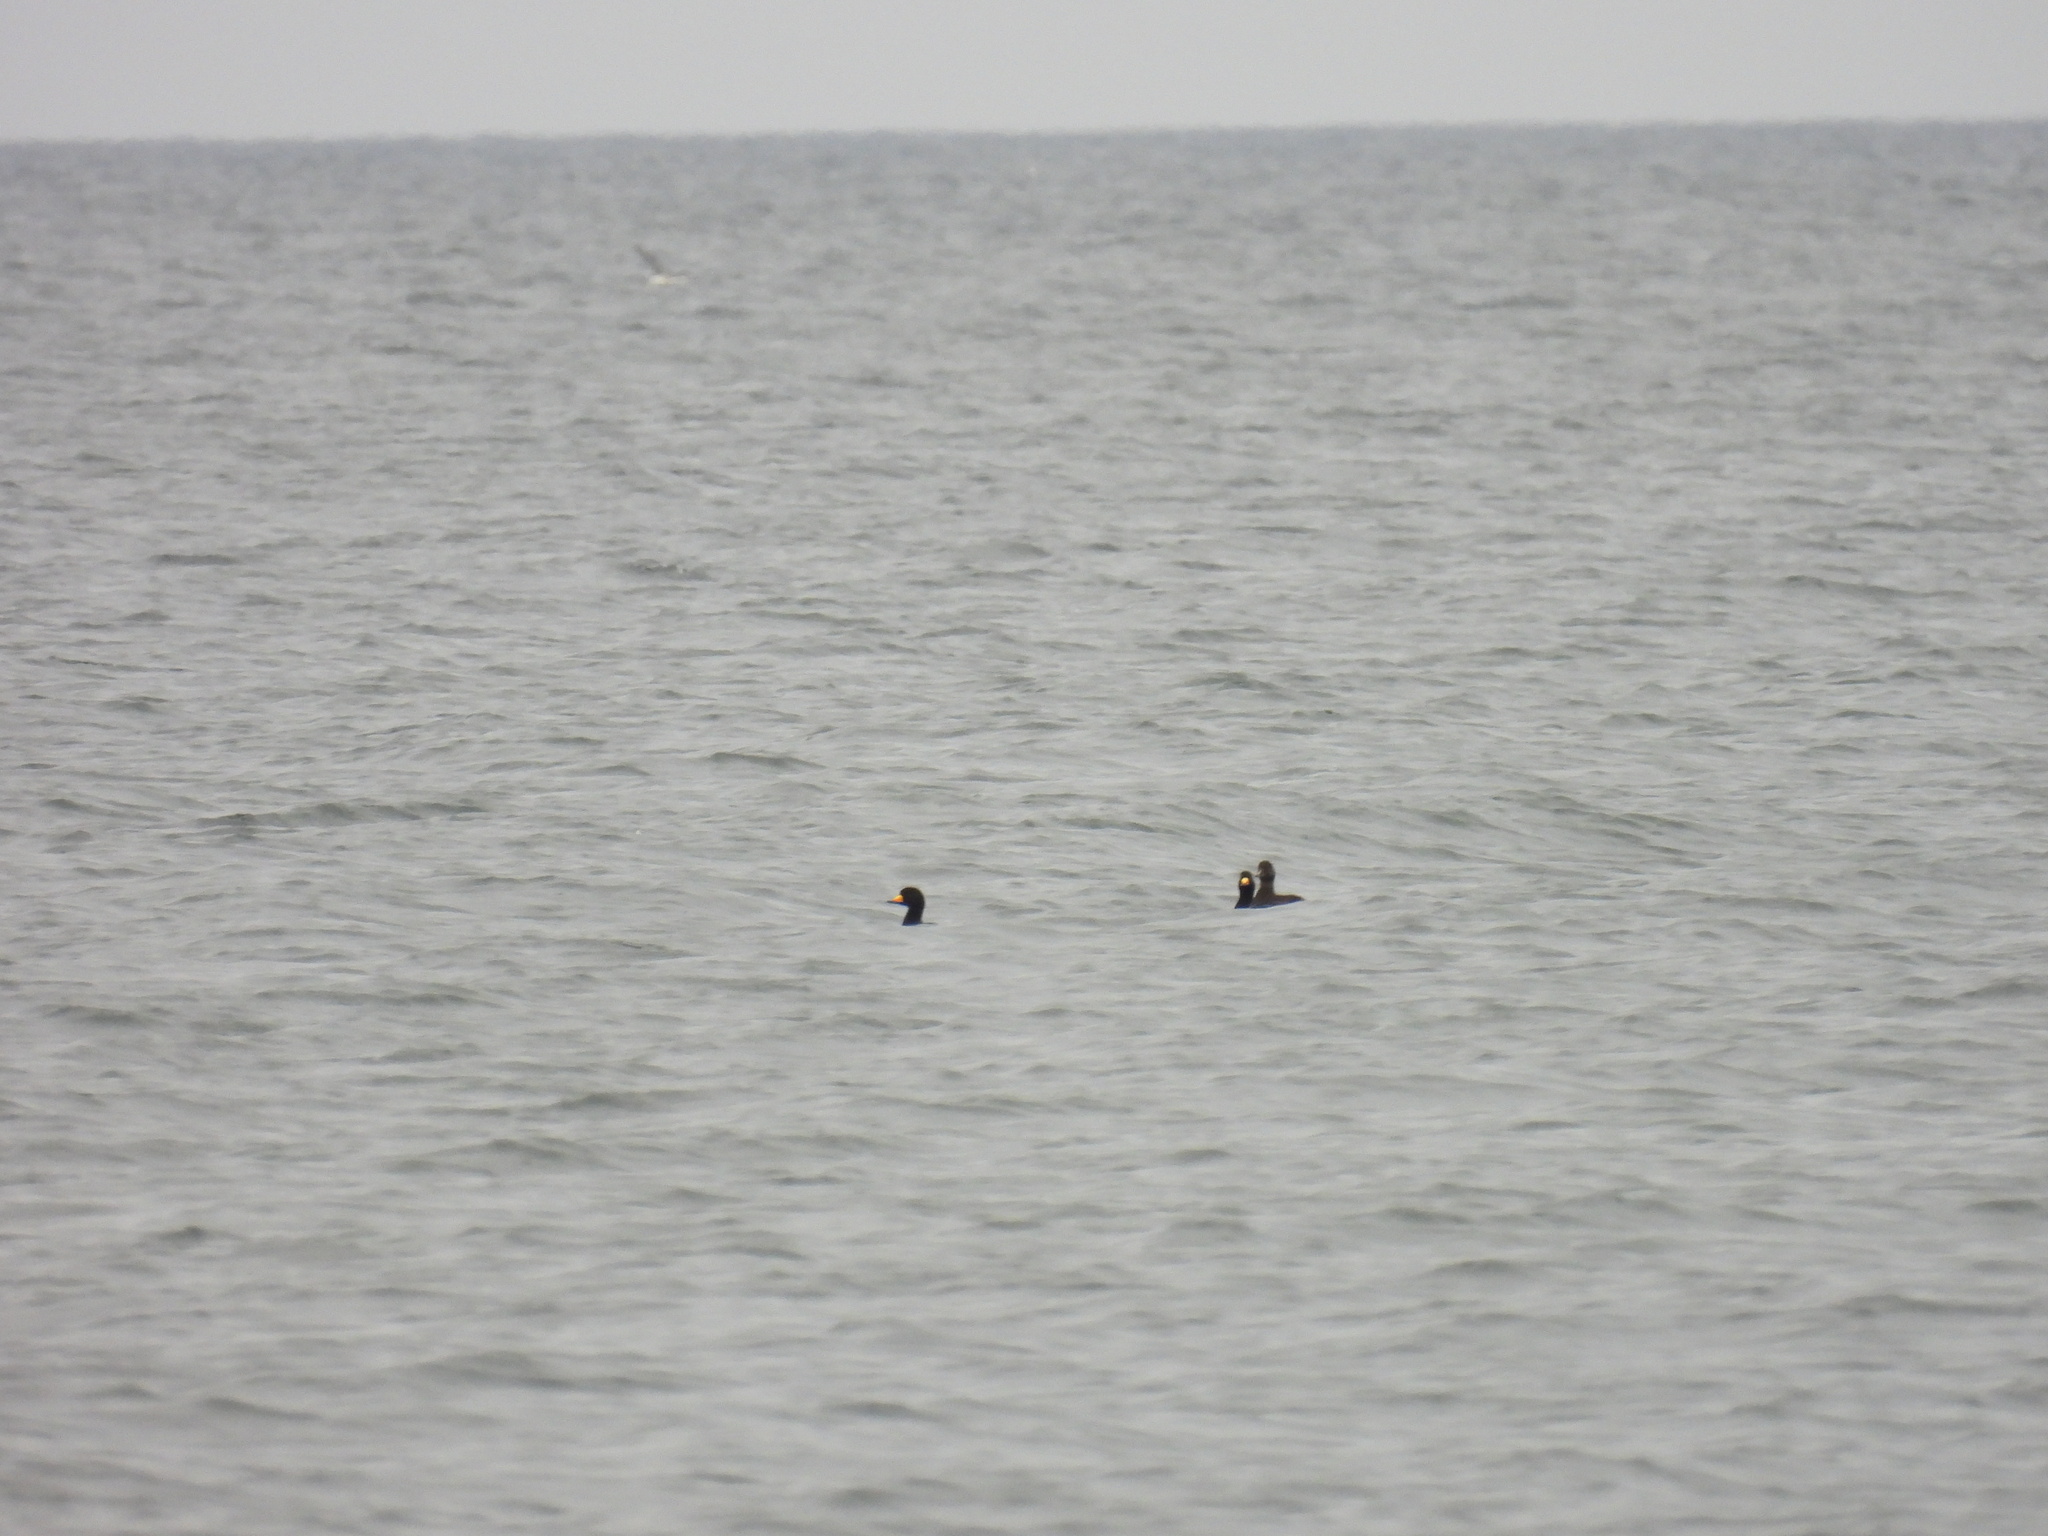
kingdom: Animalia
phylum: Chordata
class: Aves
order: Anseriformes
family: Anatidae
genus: Melanitta
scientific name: Melanitta americana
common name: Black scoter
